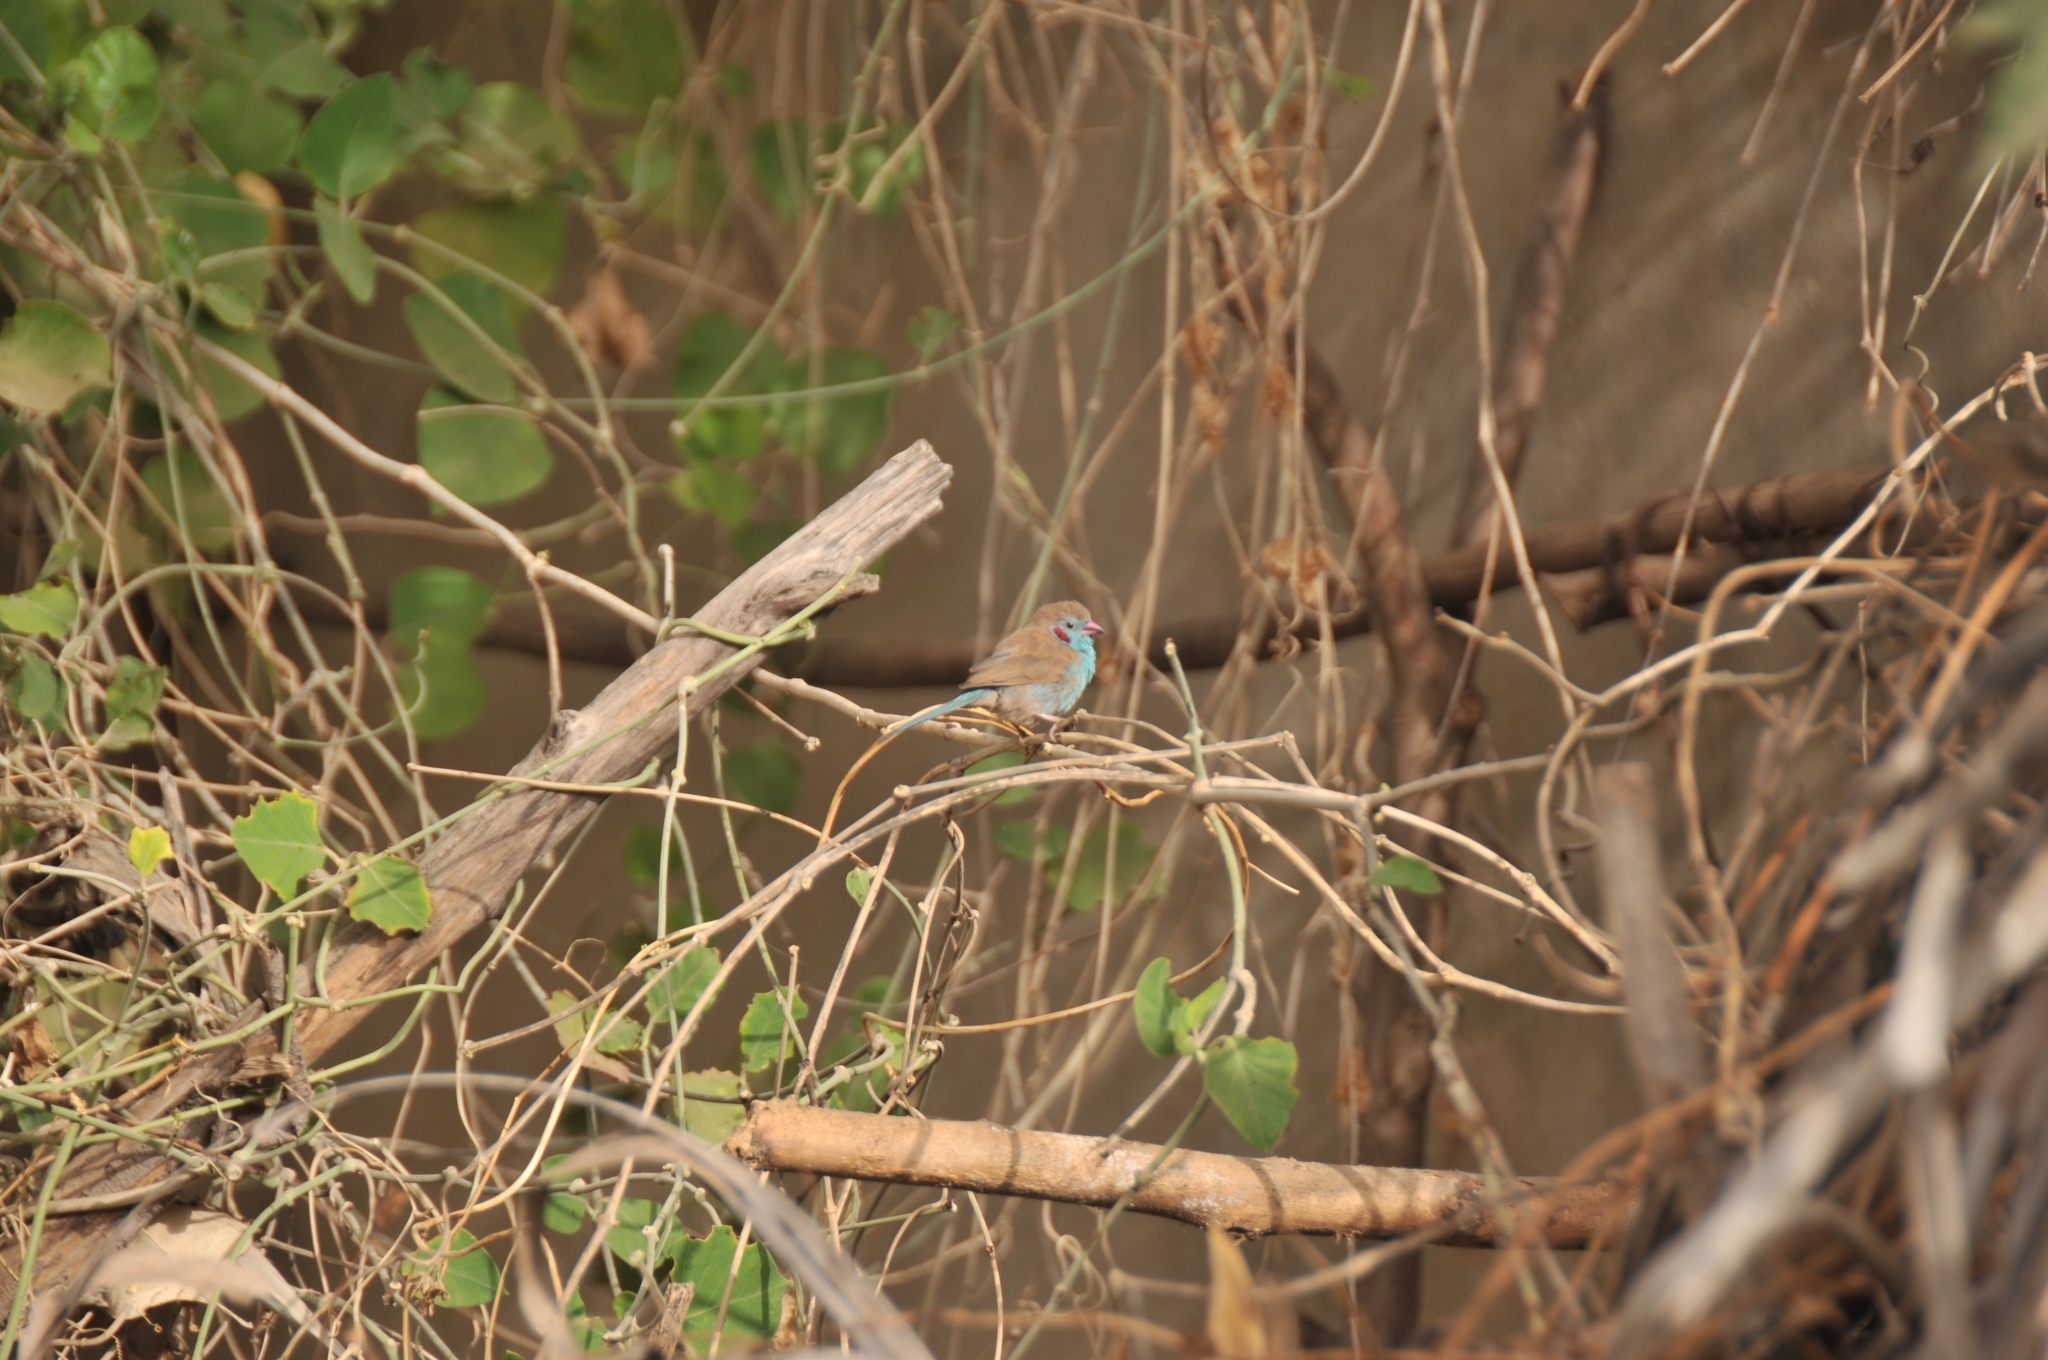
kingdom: Animalia
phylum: Chordata
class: Aves
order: Passeriformes
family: Estrildidae
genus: Uraeginthus
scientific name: Uraeginthus bengalus
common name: Red-cheeked cordon-bleu
